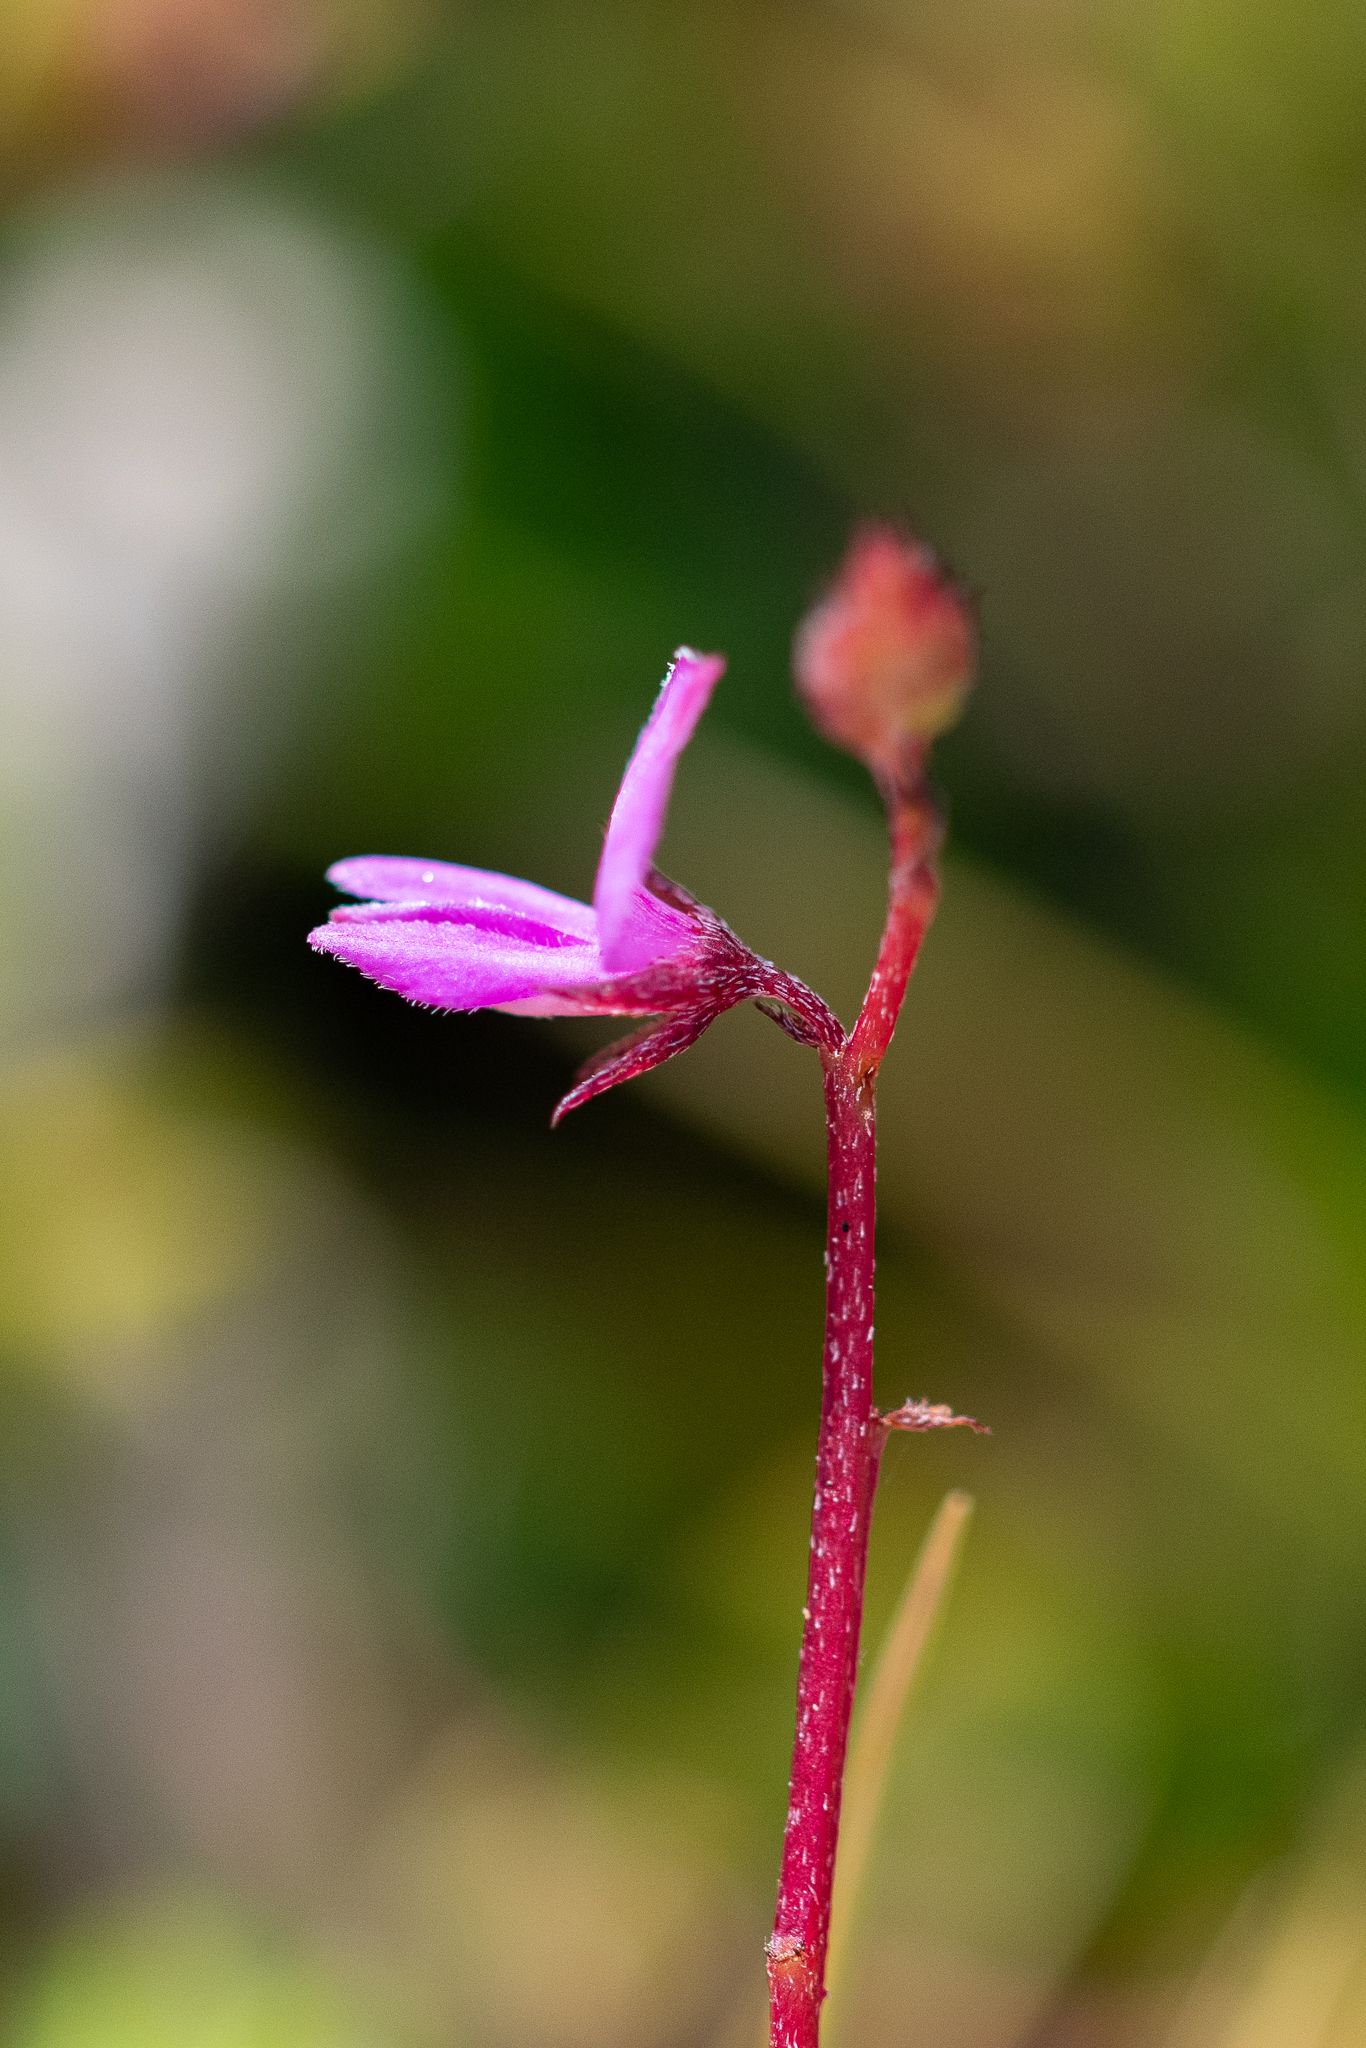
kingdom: Plantae
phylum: Tracheophyta
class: Magnoliopsida
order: Fabales
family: Fabaceae
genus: Indigofera
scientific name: Indigofera sarmentosa
